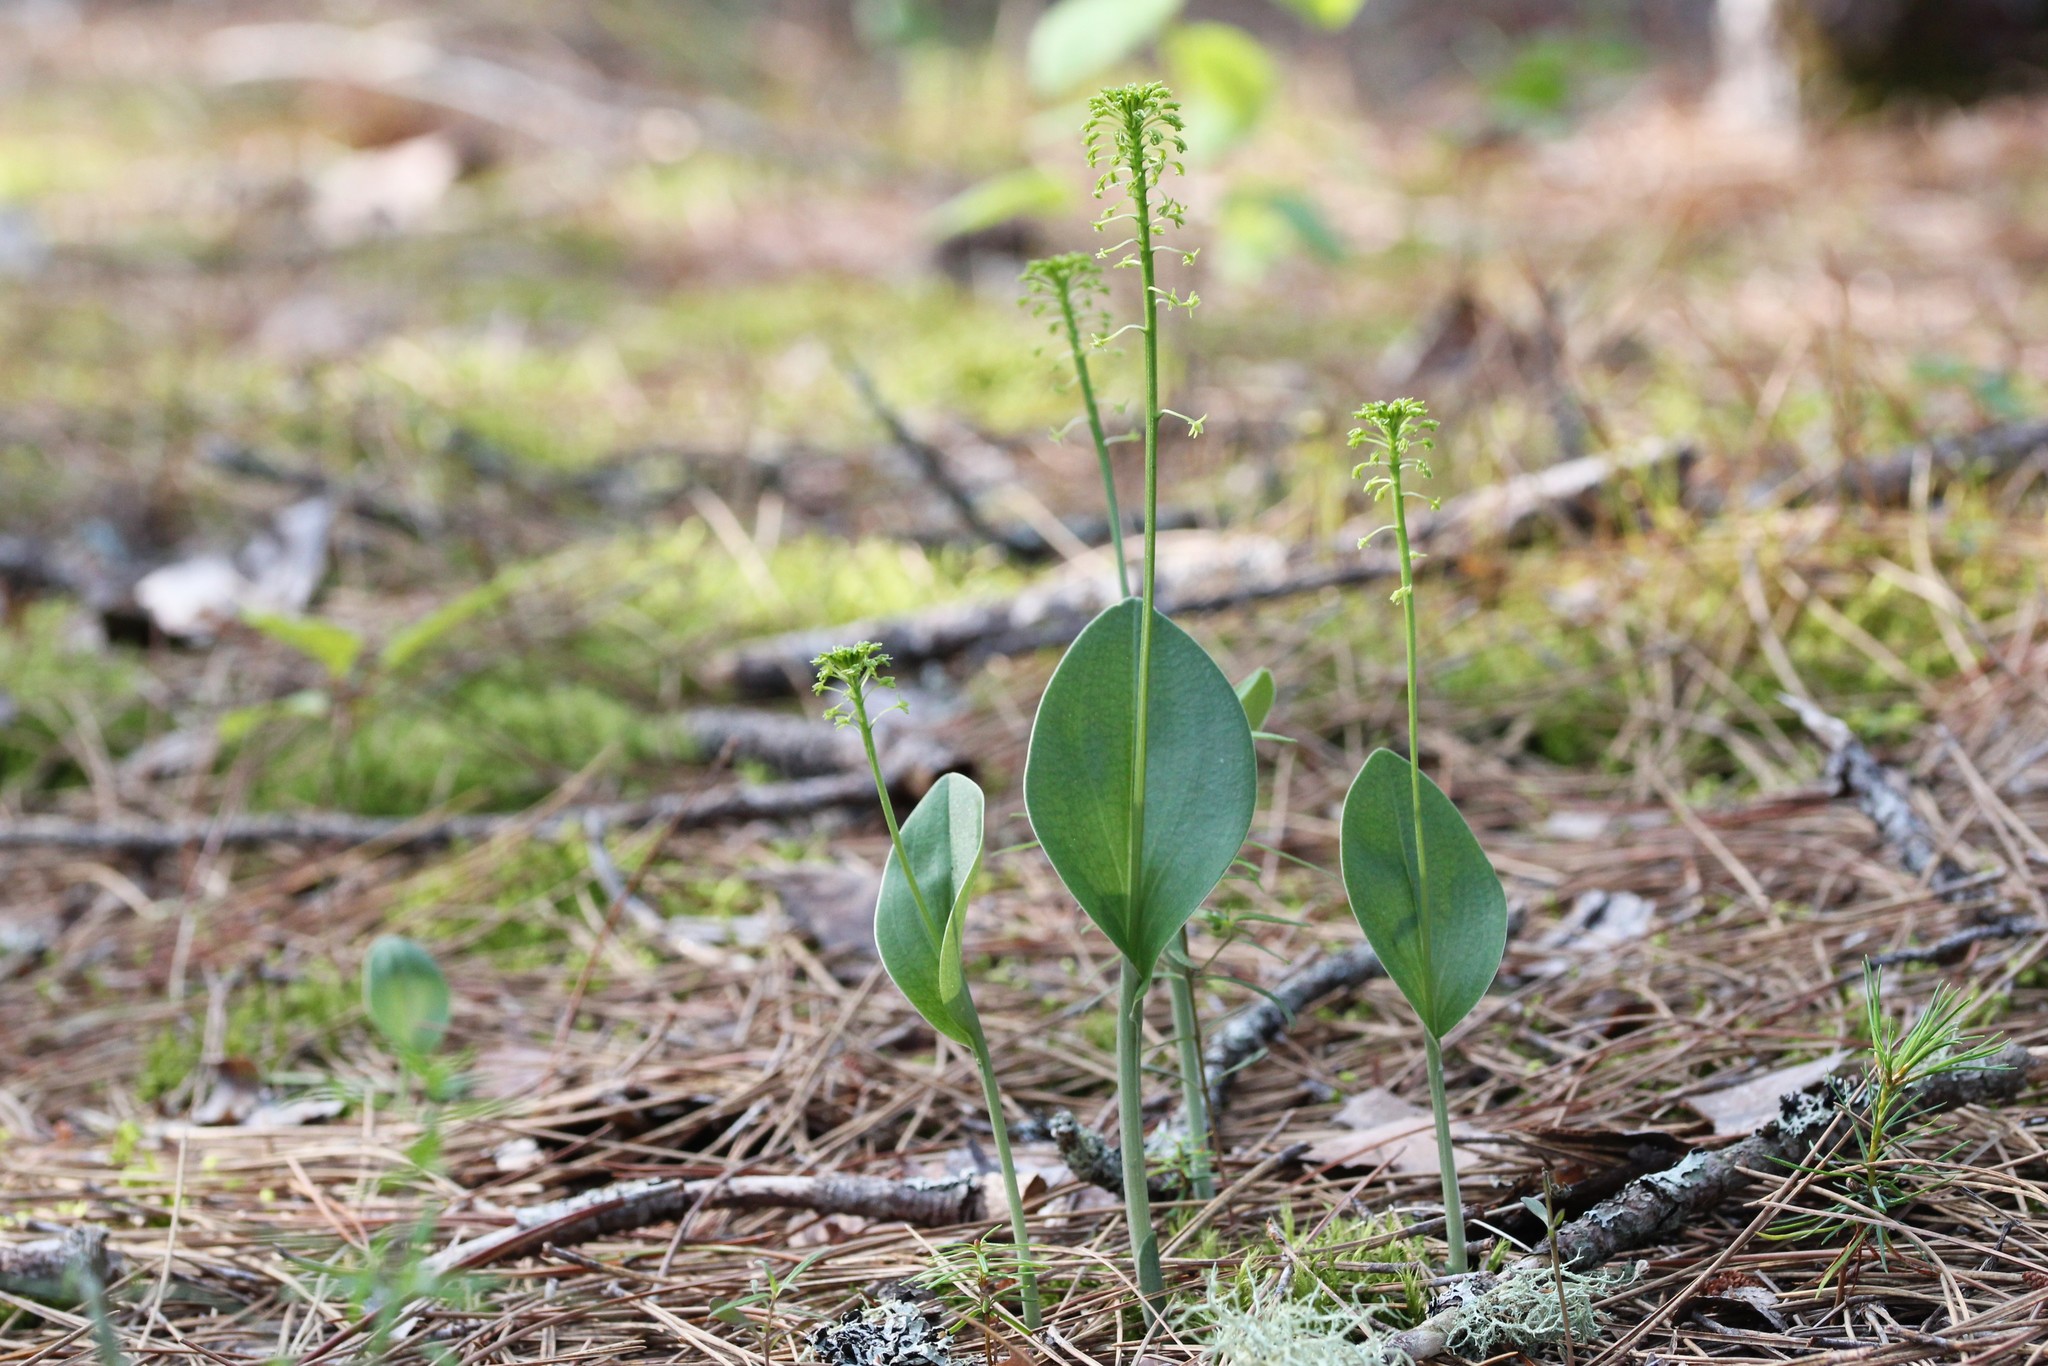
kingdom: Plantae
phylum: Tracheophyta
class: Liliopsida
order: Asparagales
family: Orchidaceae
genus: Malaxis
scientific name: Malaxis unifolia
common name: Green adder's-mouth
